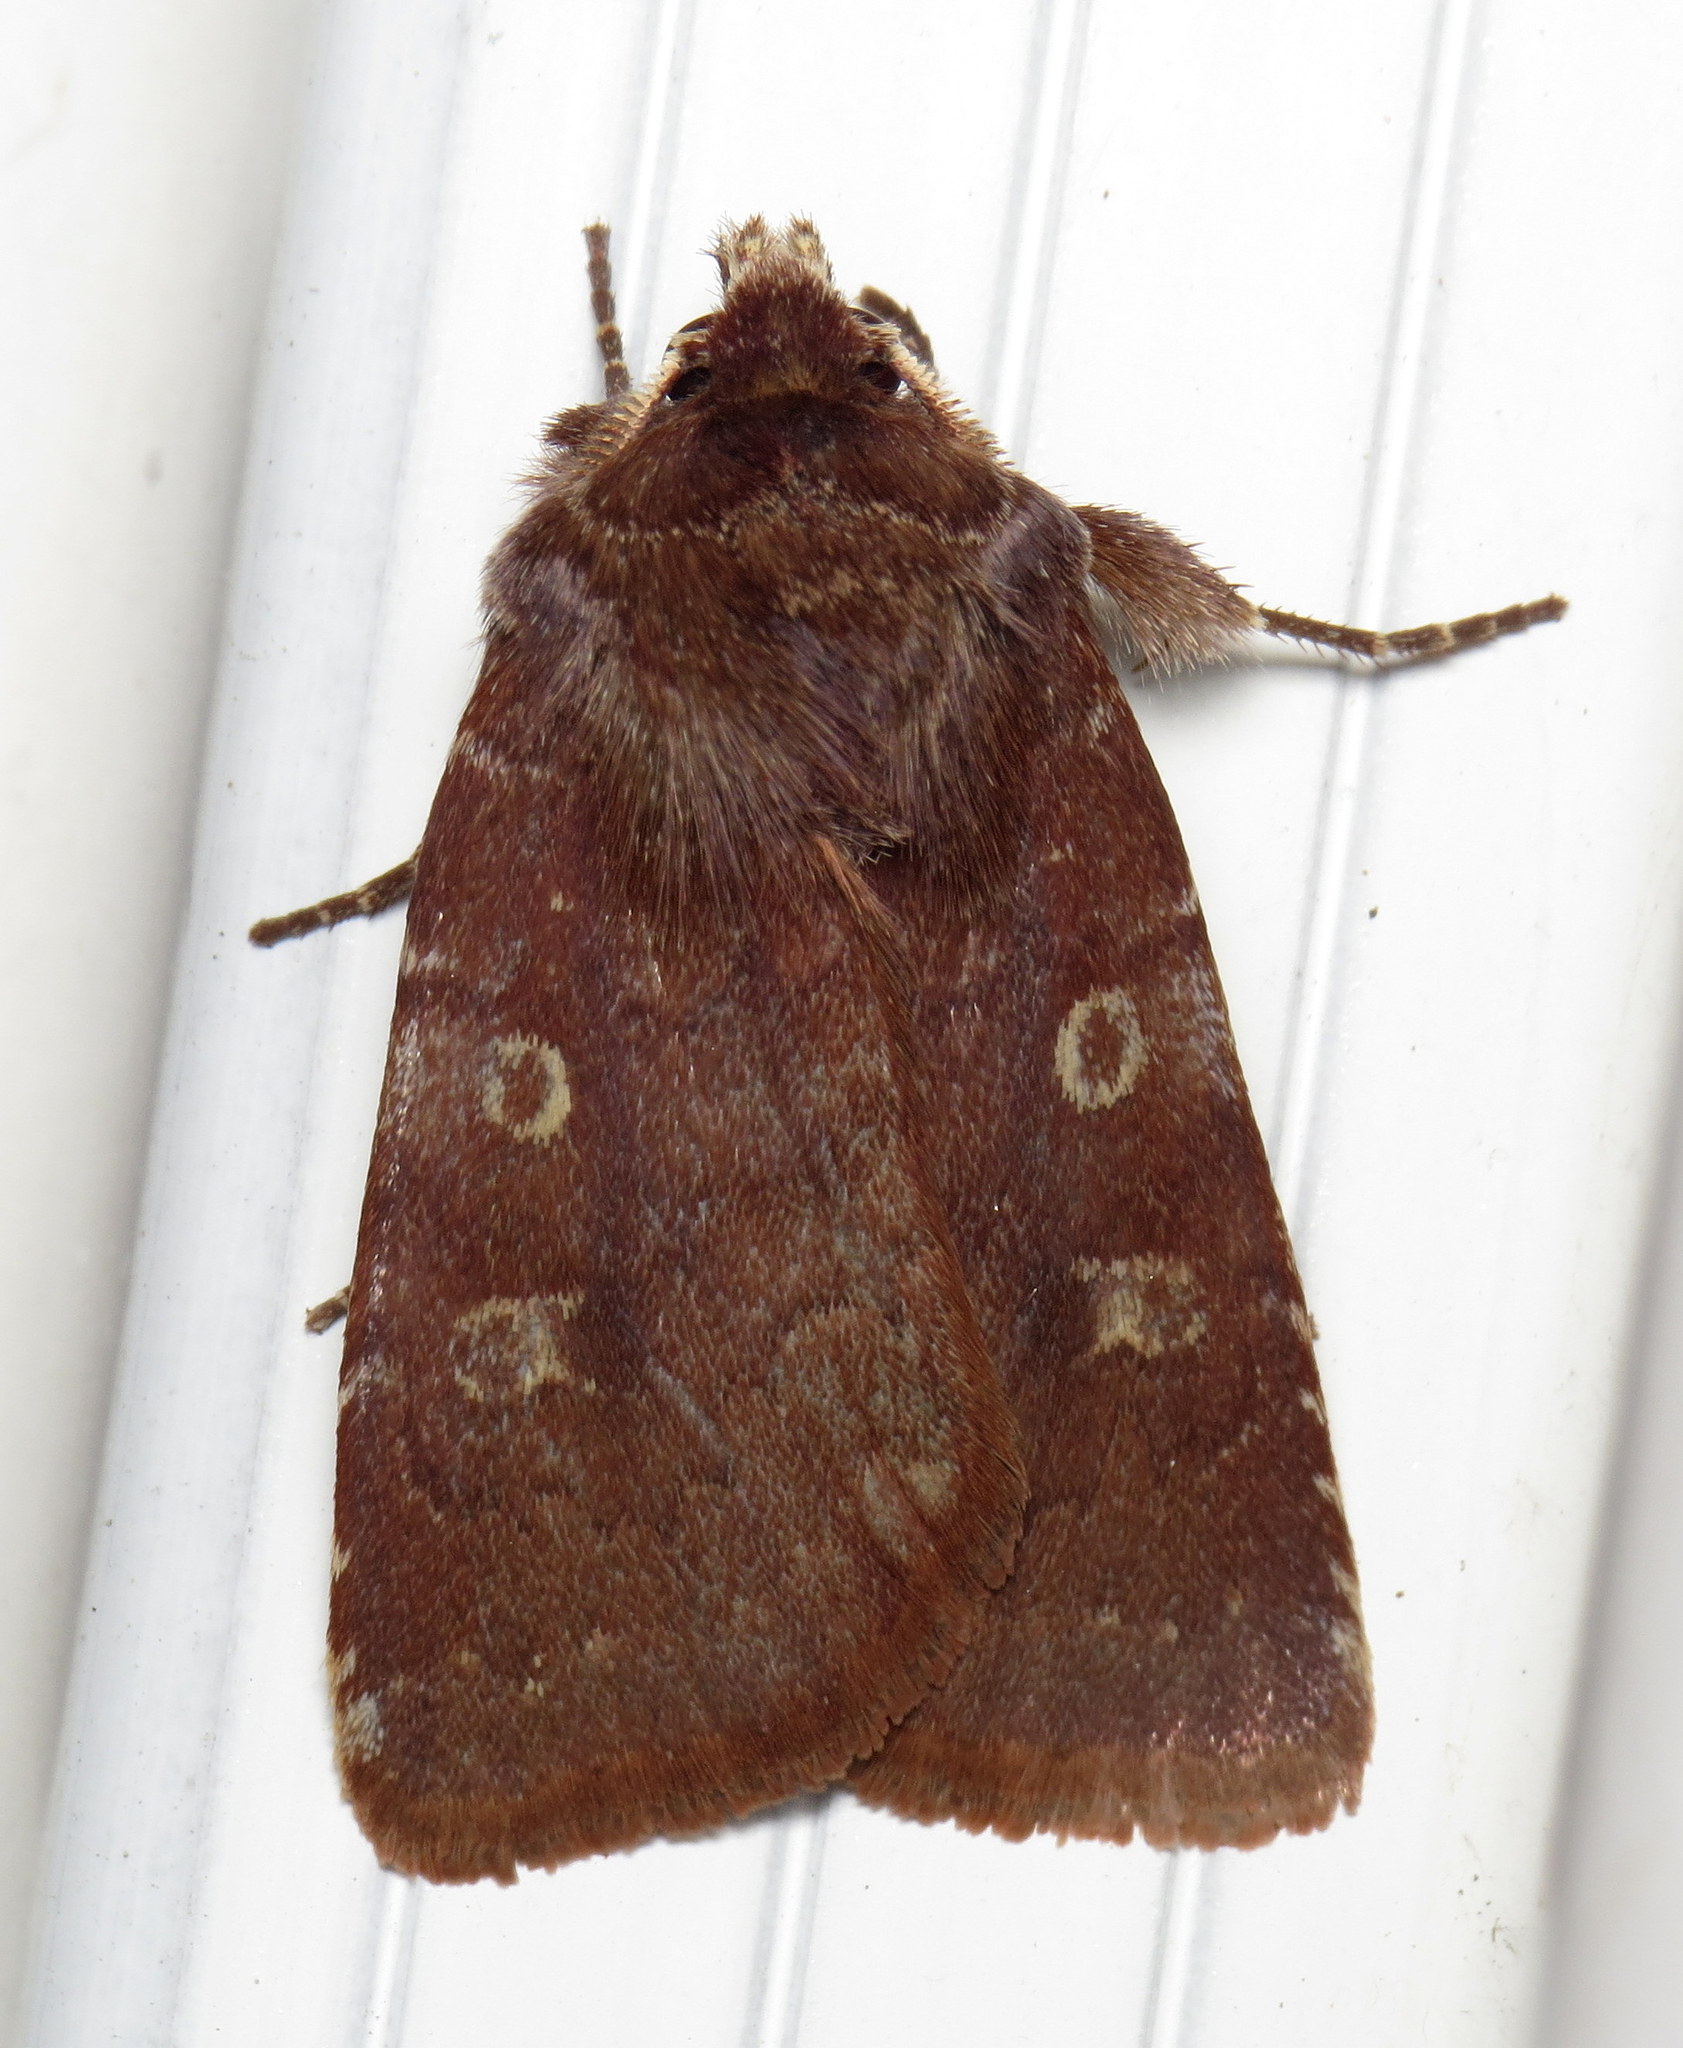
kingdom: Animalia
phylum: Arthropoda
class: Insecta
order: Lepidoptera
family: Noctuidae
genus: Cerastis
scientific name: Cerastis tenebrifera
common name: Reddish speckled dart
